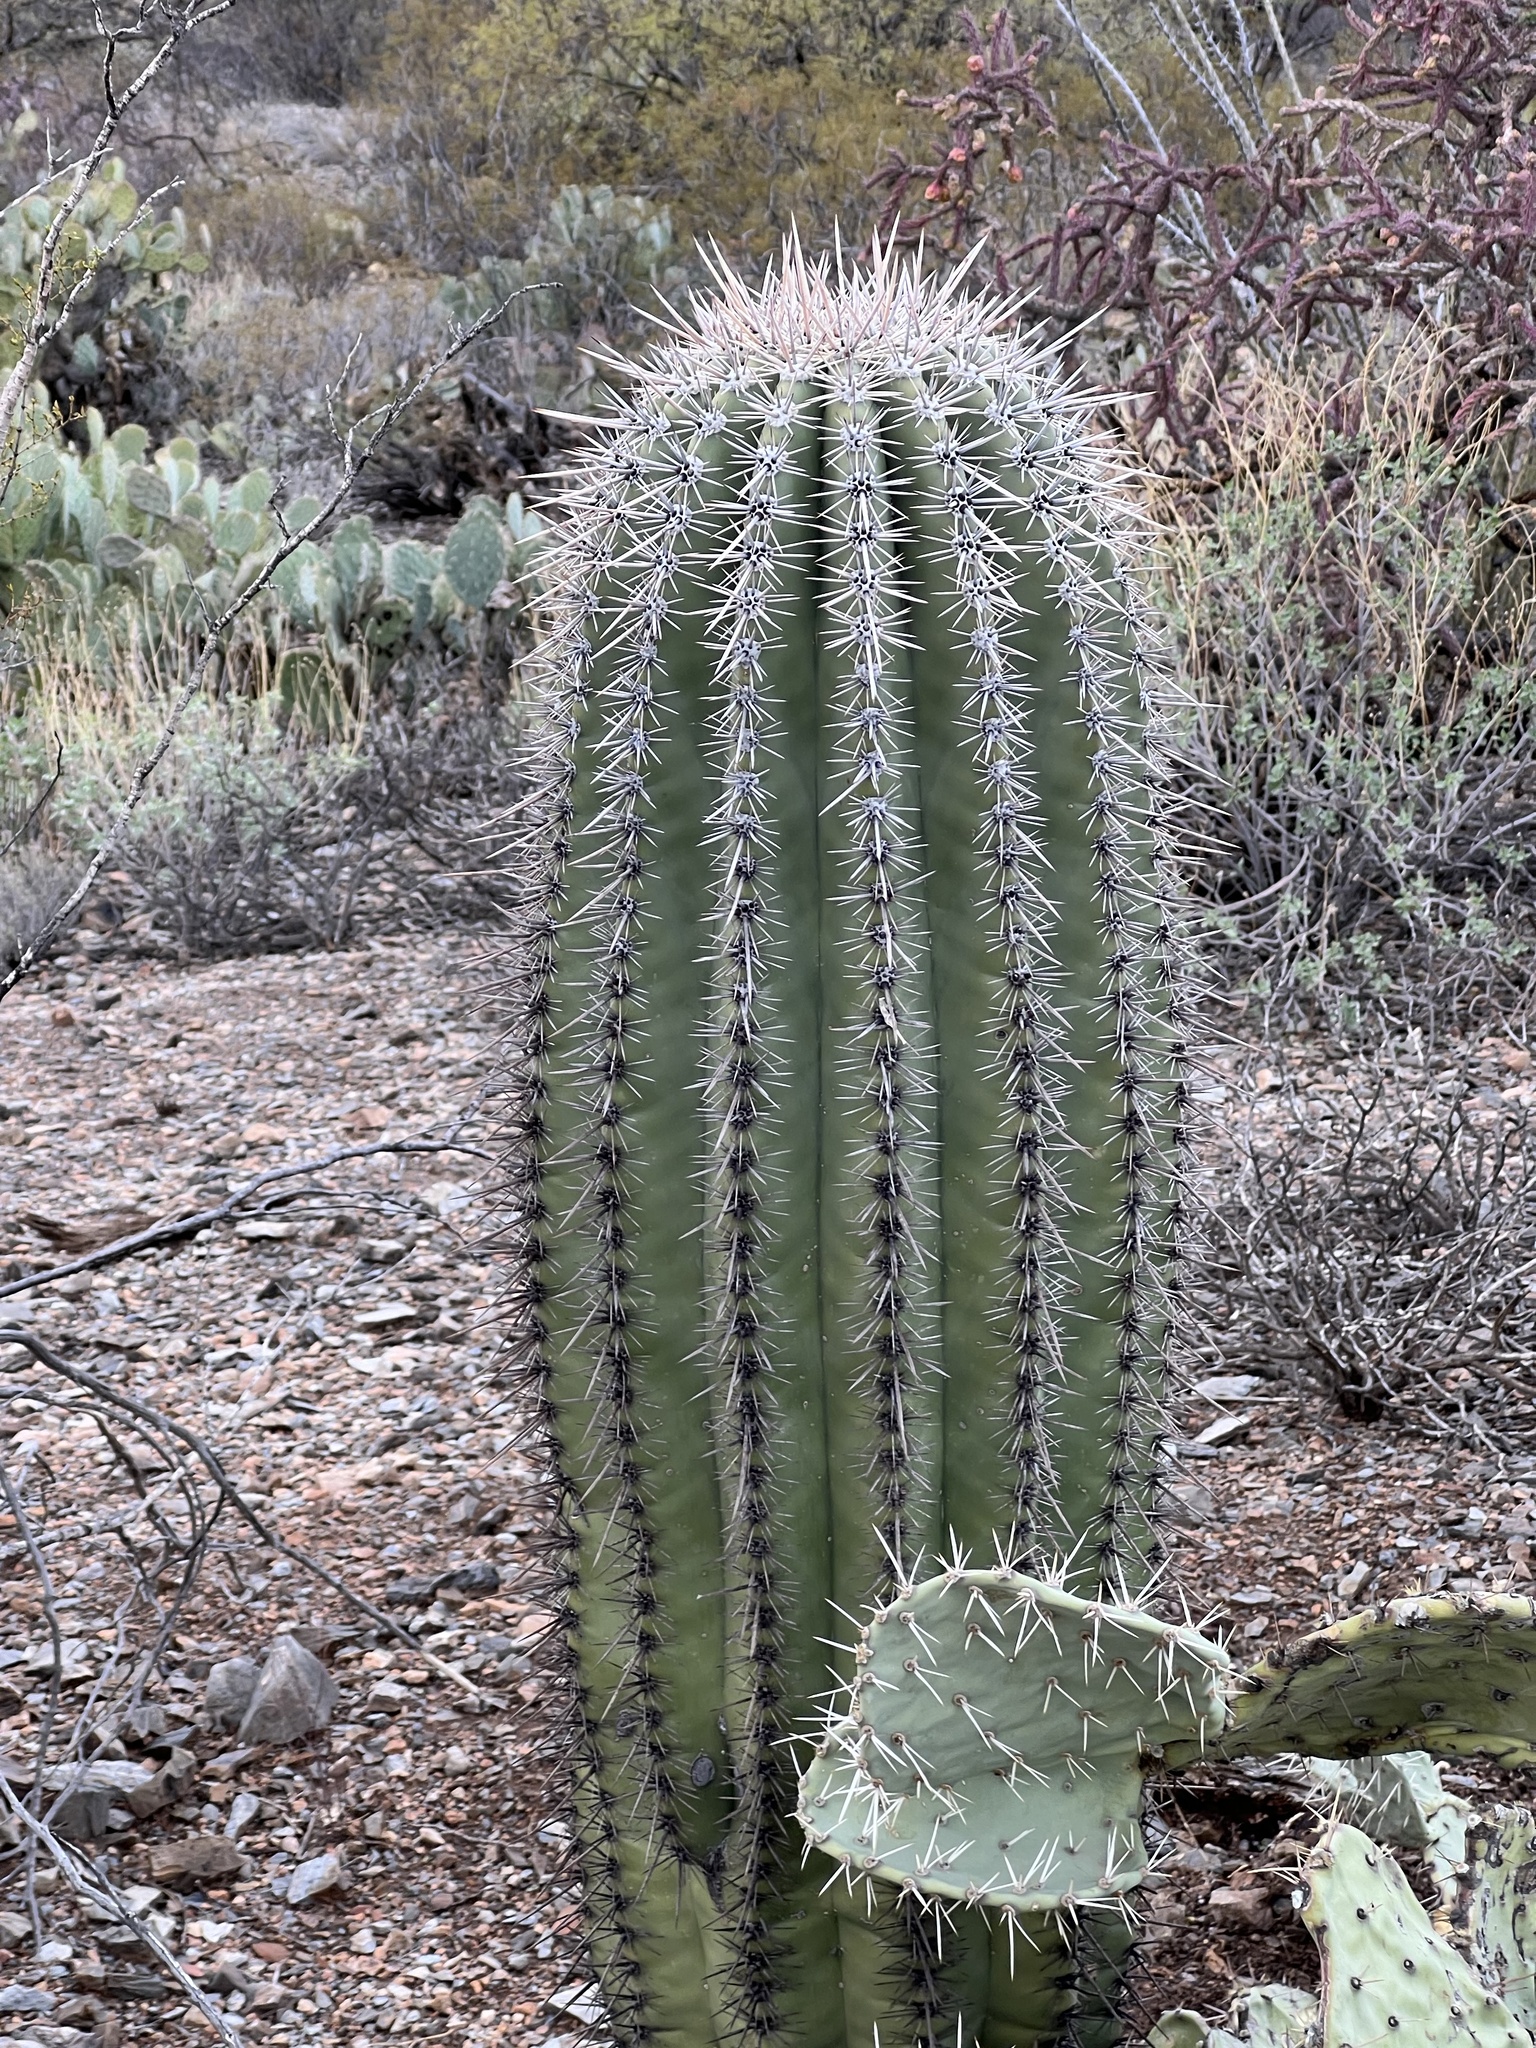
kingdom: Plantae
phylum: Tracheophyta
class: Magnoliopsida
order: Caryophyllales
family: Cactaceae
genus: Carnegiea
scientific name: Carnegiea gigantea
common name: Saguaro
